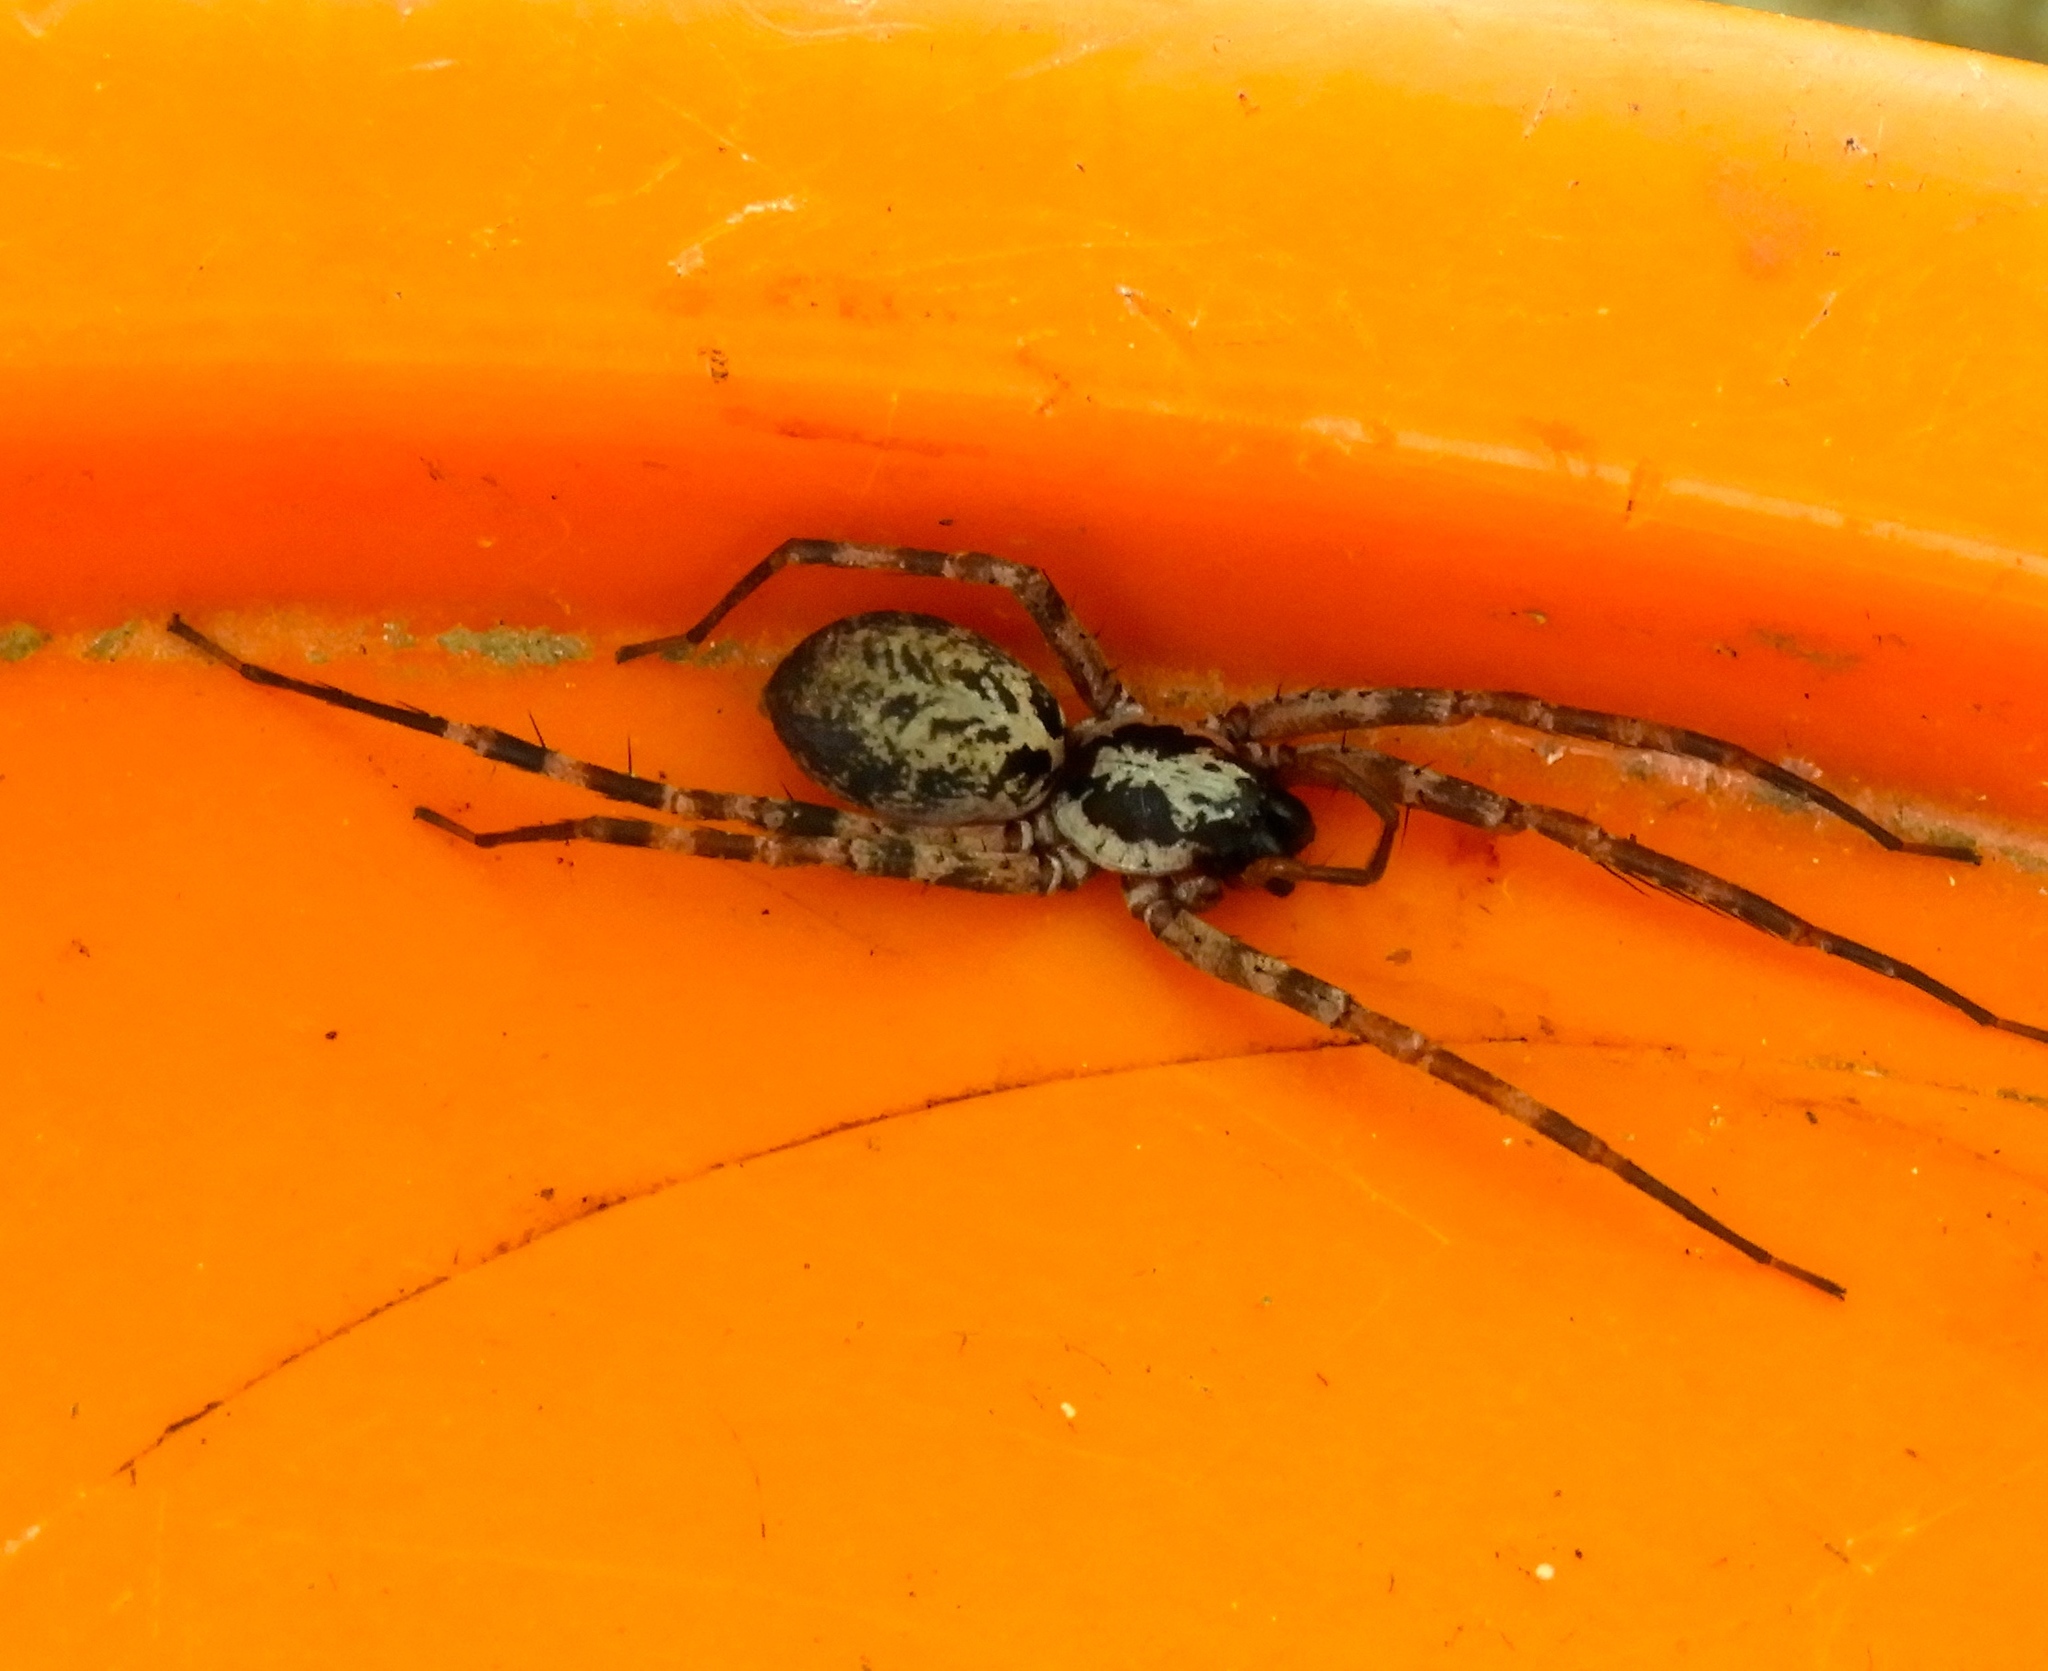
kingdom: Animalia
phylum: Arthropoda
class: Arachnida
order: Araneae
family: Corinnidae
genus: Megalostrata
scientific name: Megalostrata
